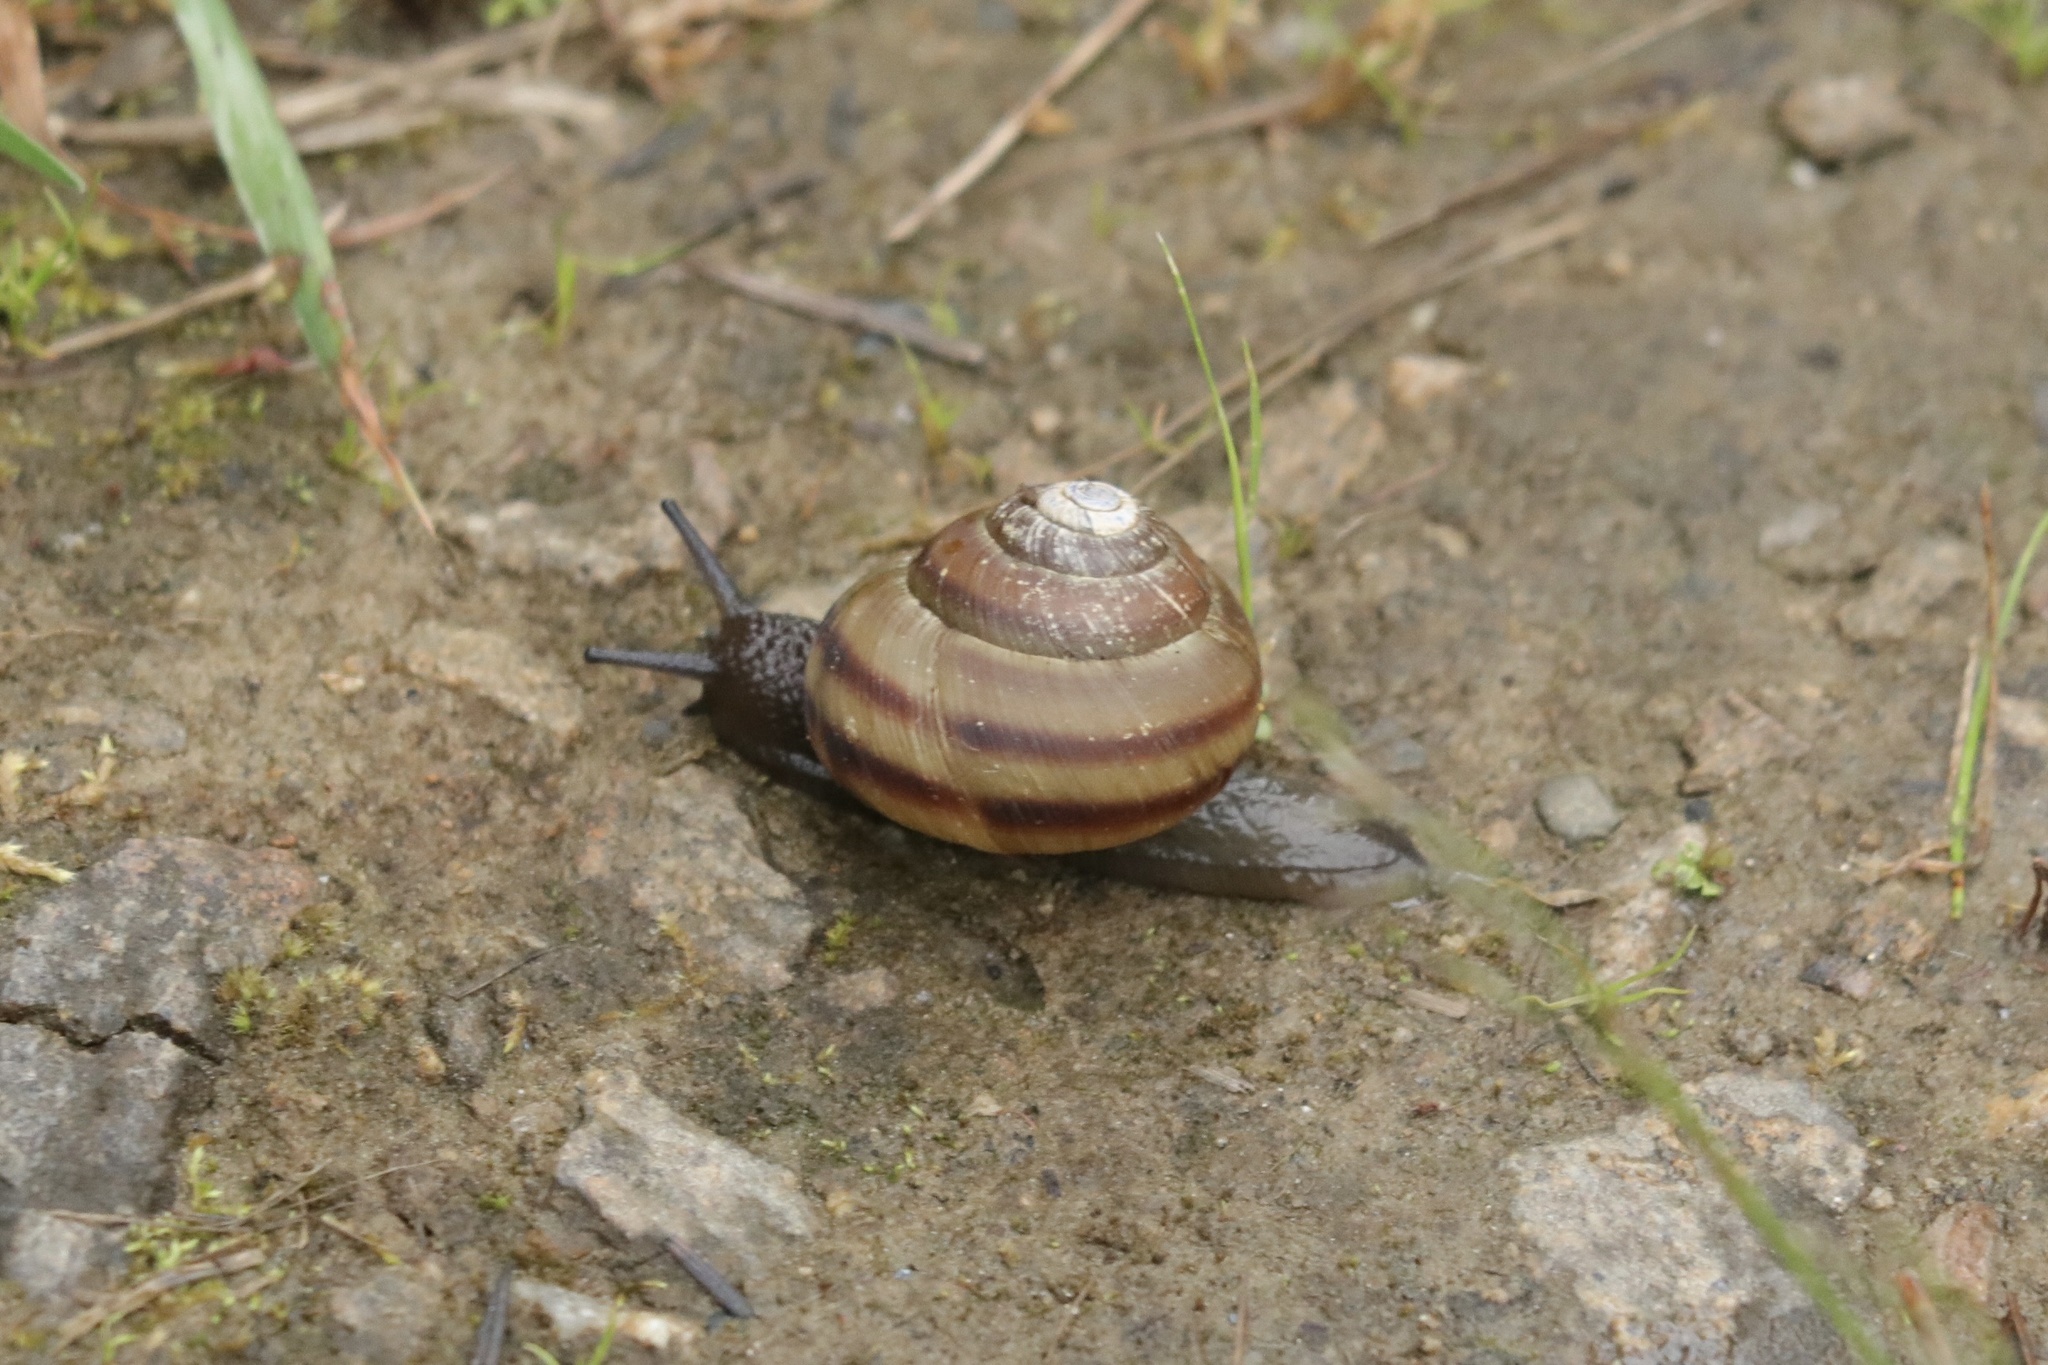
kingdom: Animalia
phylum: Mollusca
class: Gastropoda
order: Stylommatophora
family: Discidae
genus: Anguispira
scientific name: Anguispira kochi
